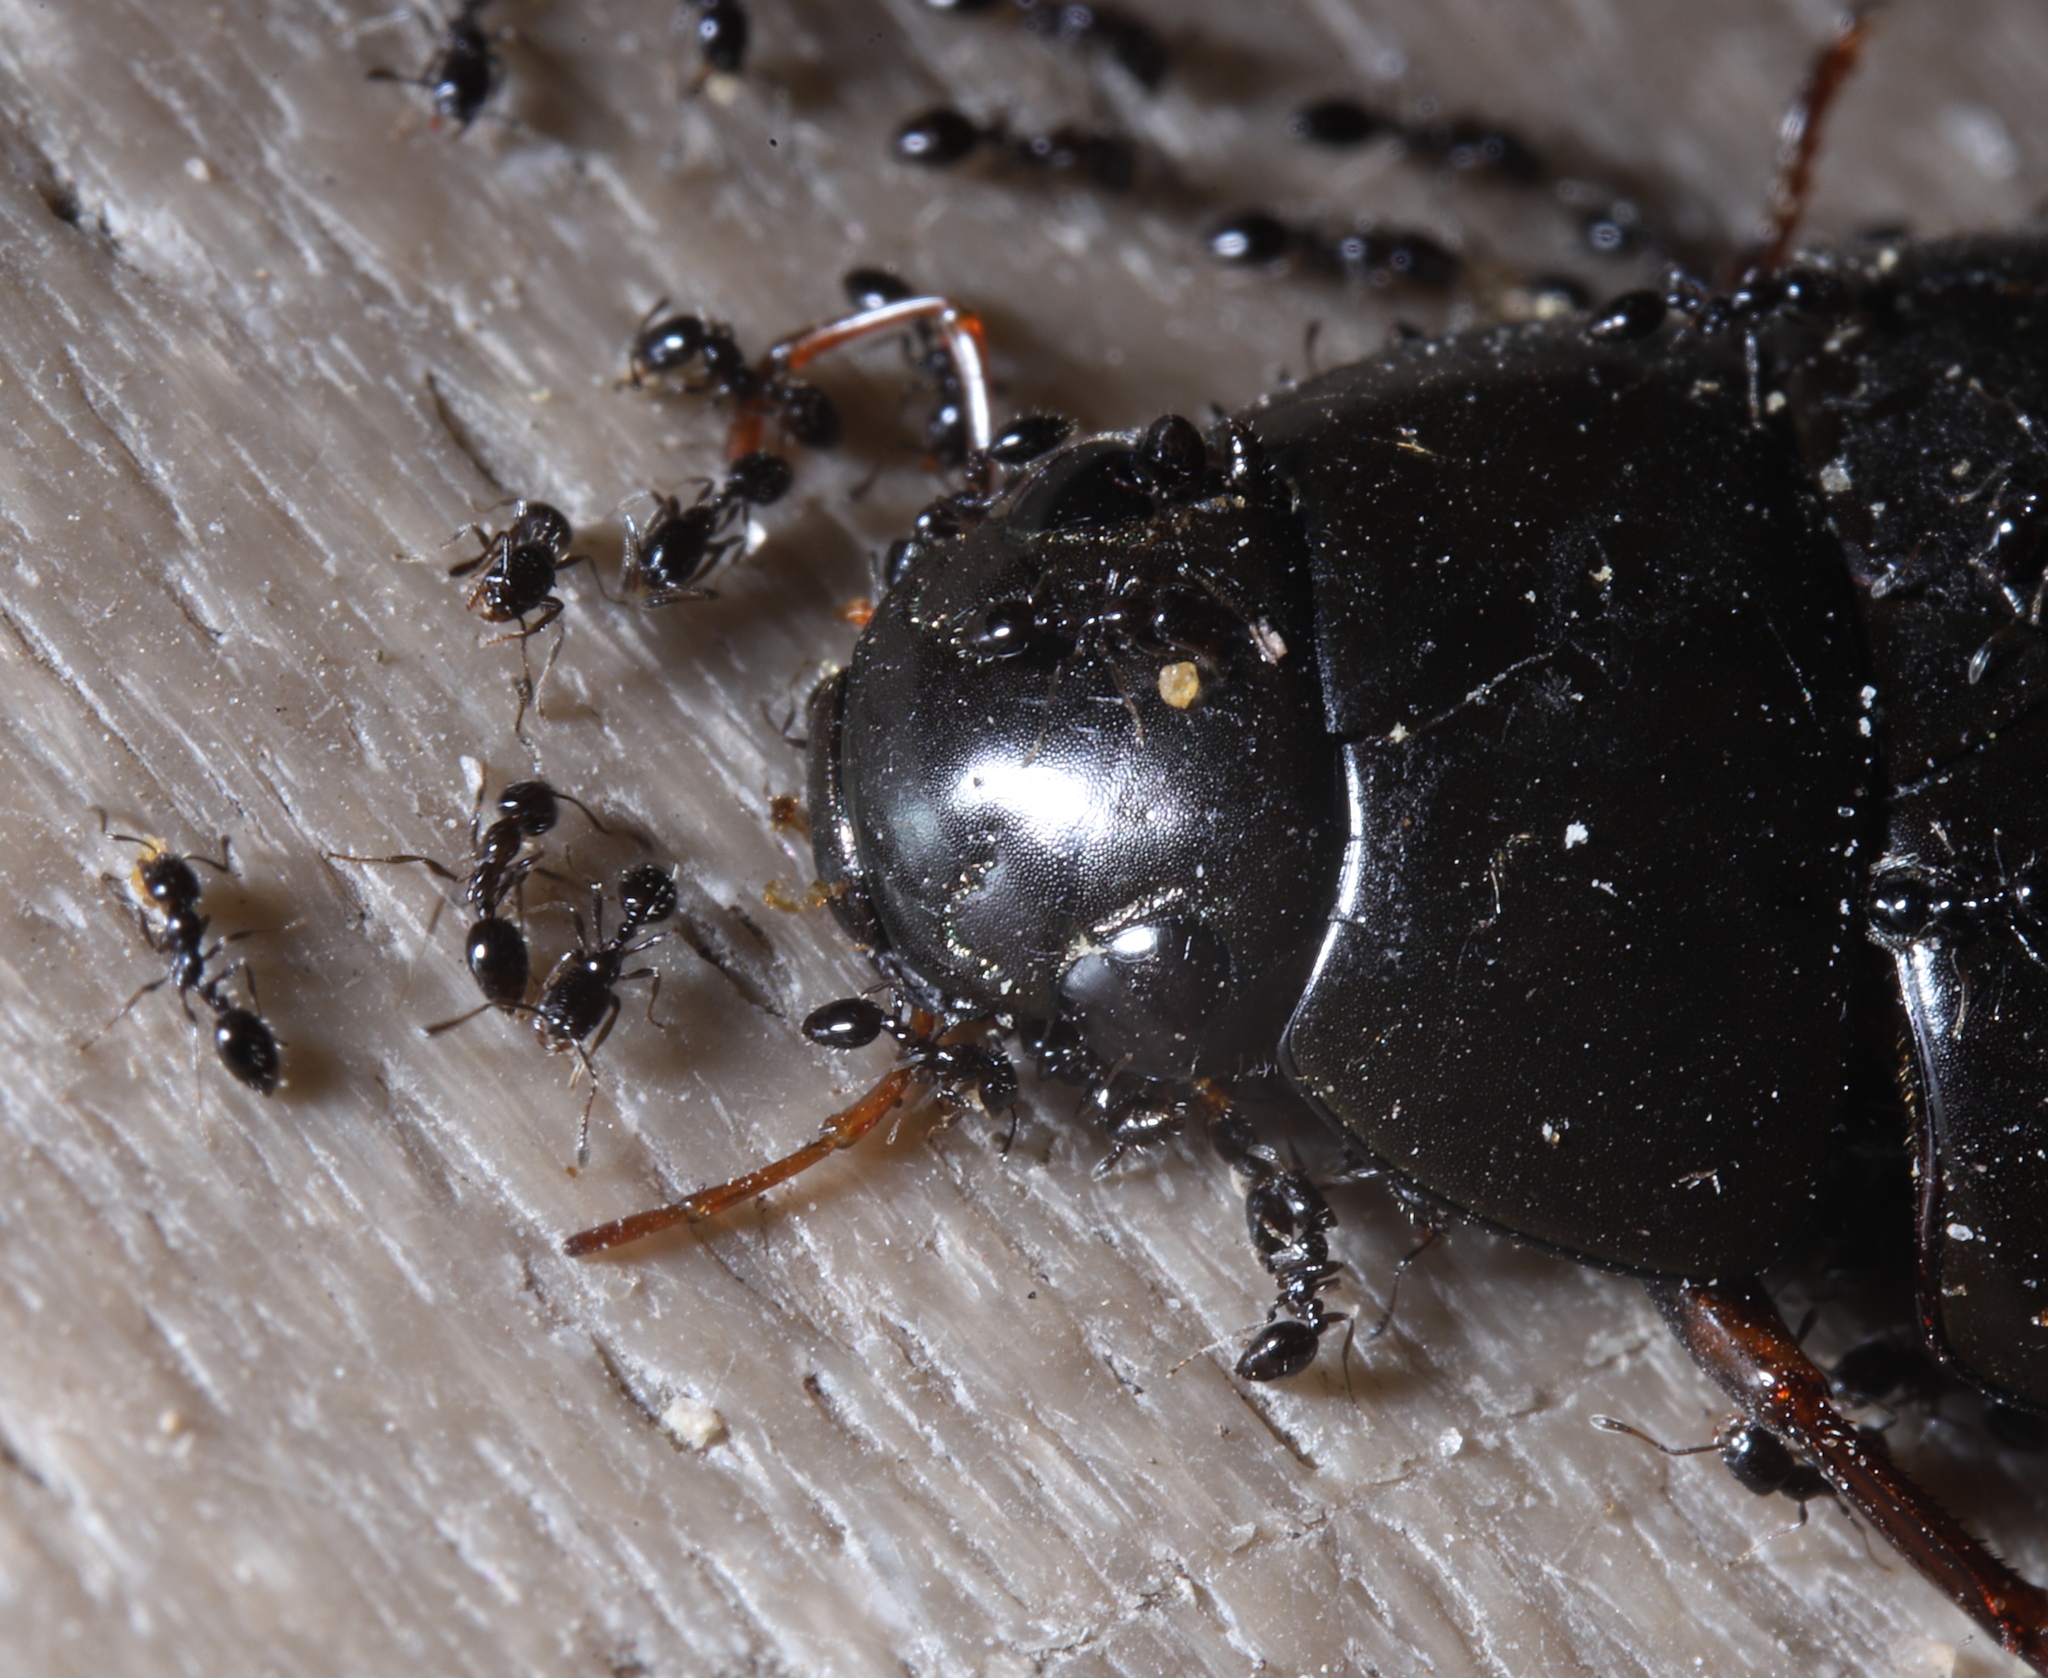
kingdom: Animalia
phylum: Arthropoda
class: Insecta
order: Hymenoptera
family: Formicidae
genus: Monomorium
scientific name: Monomorium minimum
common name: Little black ant
